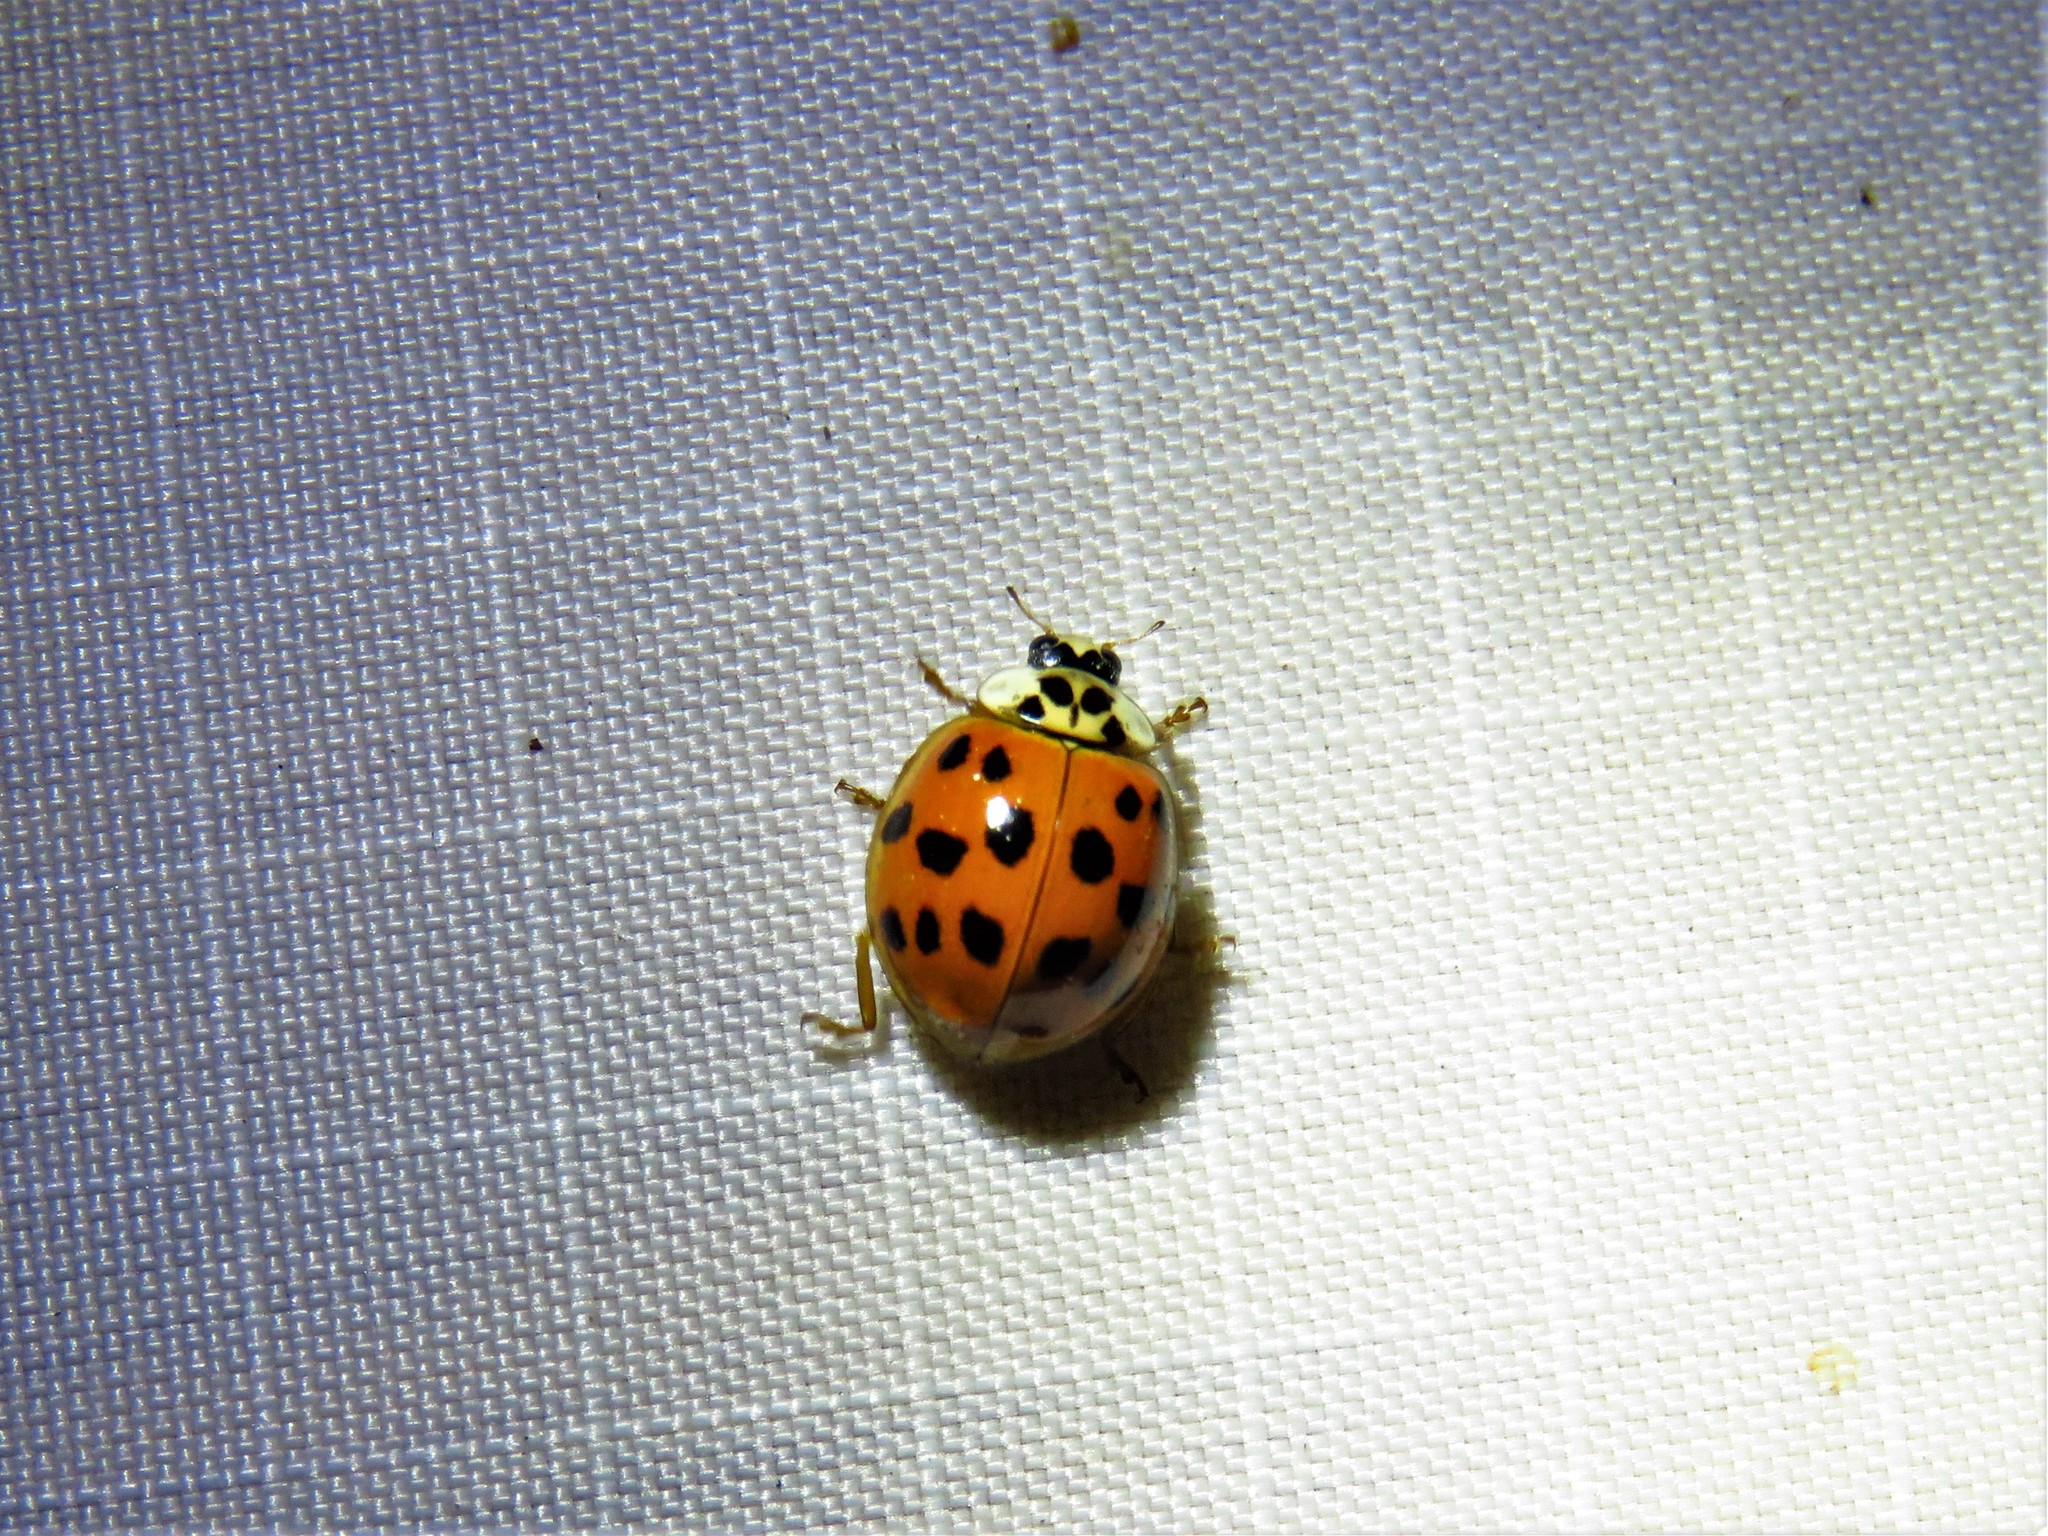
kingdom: Animalia
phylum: Arthropoda
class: Insecta
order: Coleoptera
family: Coccinellidae
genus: Harmonia
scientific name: Harmonia axyridis
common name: Harlequin ladybird
